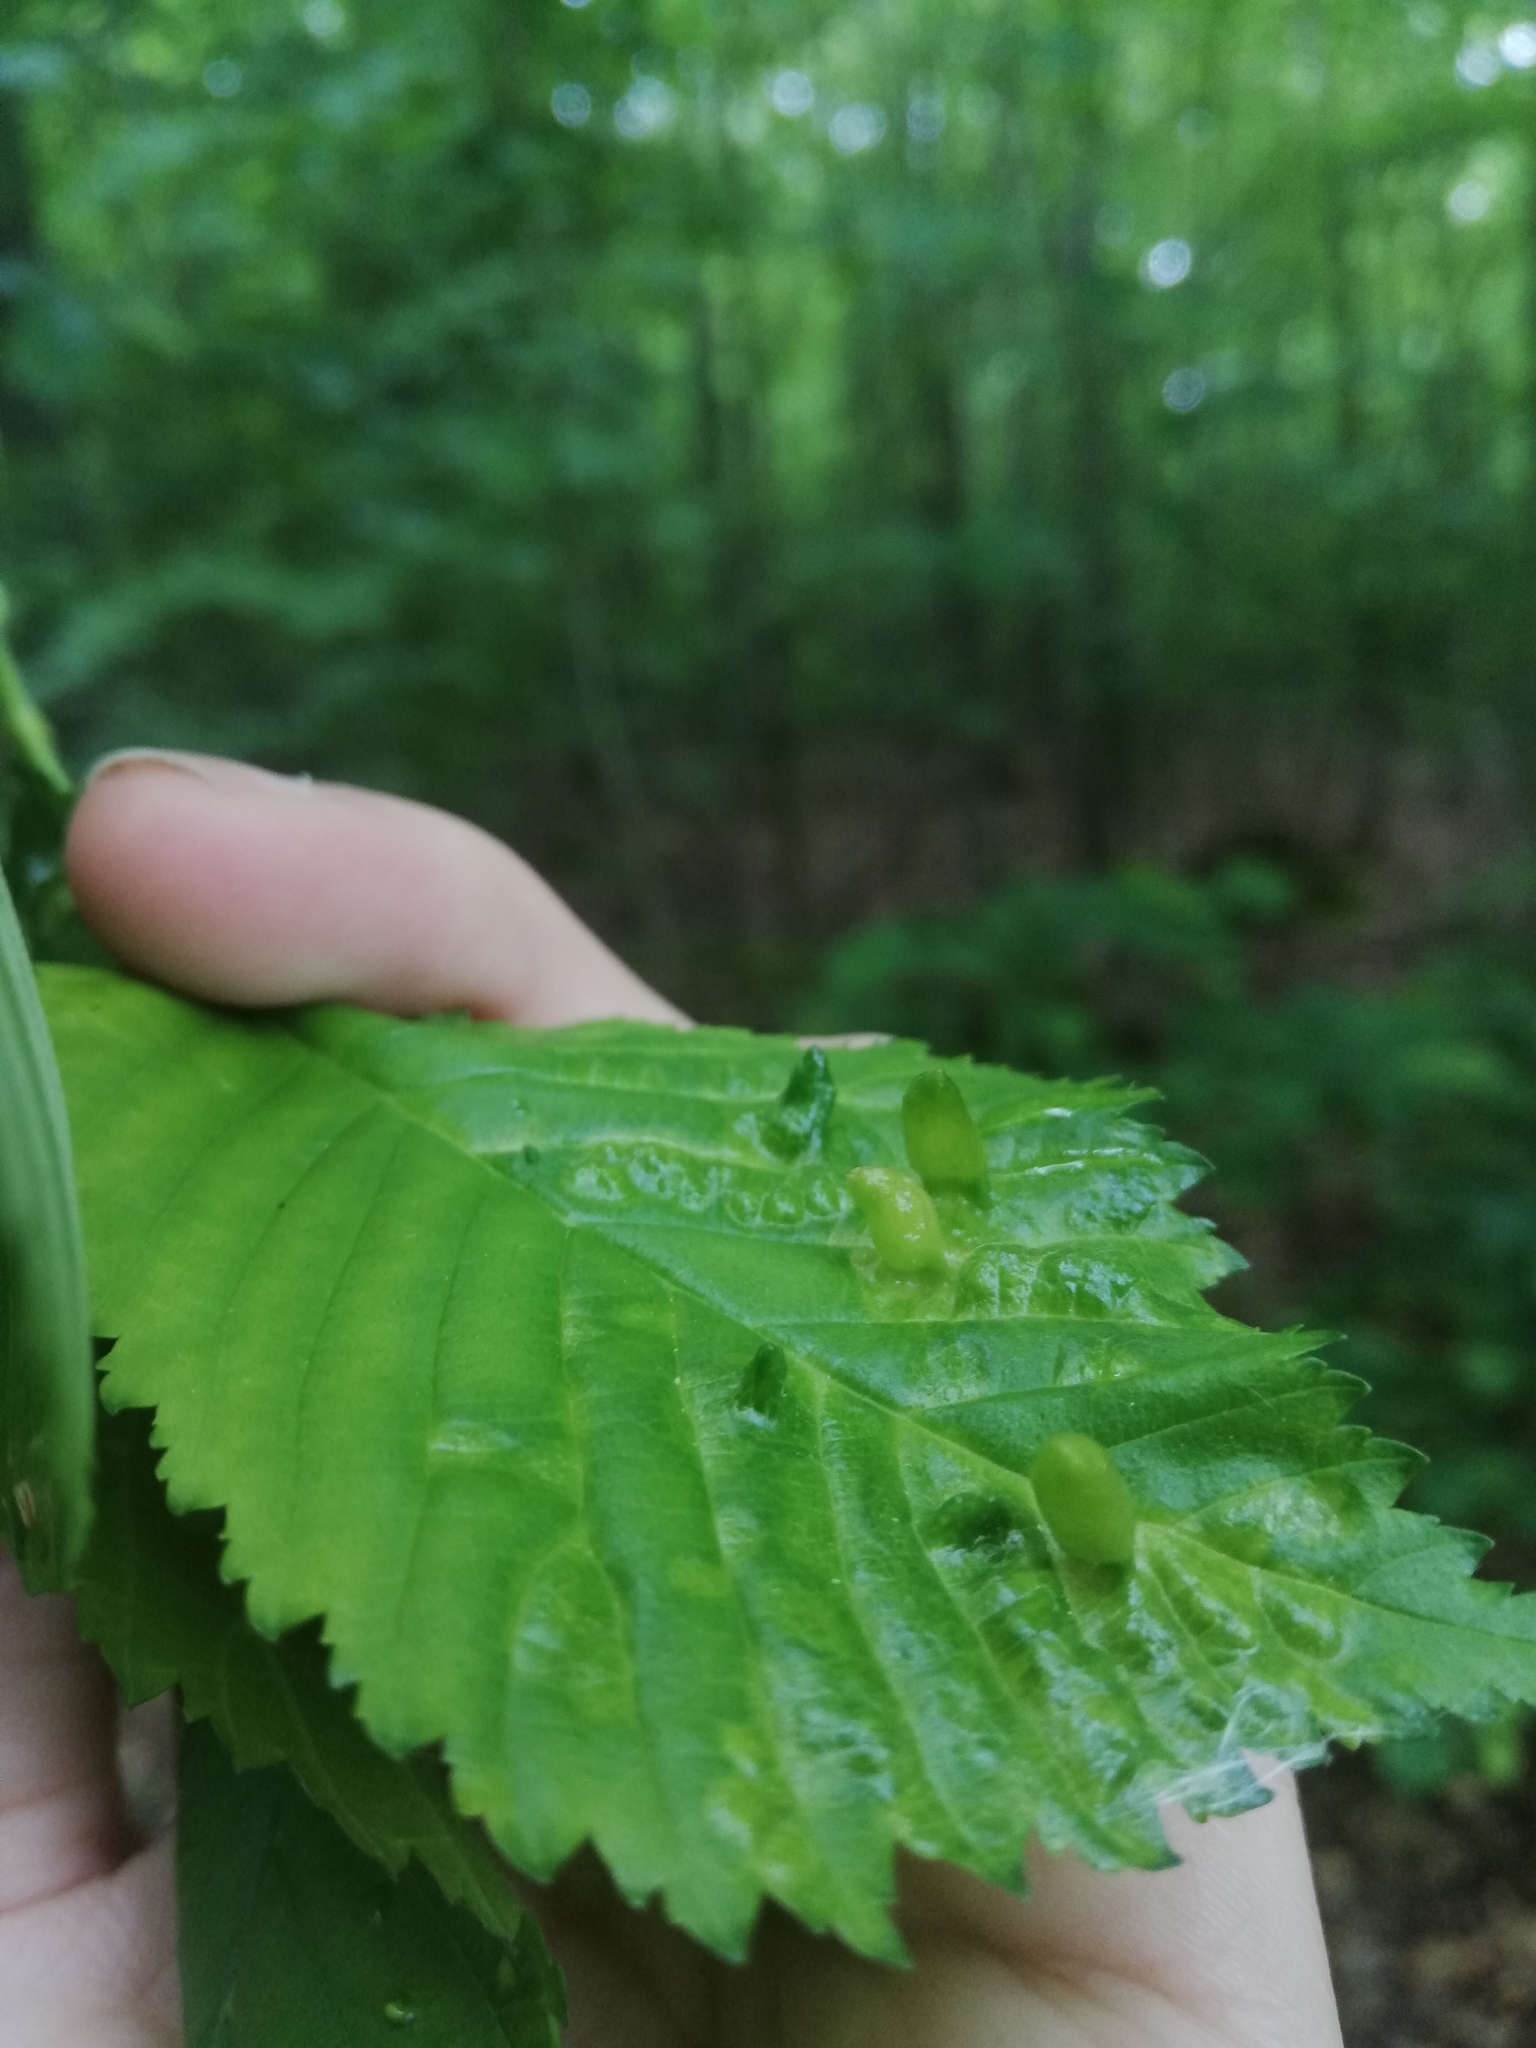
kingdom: Animalia
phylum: Arthropoda
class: Insecta
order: Hemiptera
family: Aphididae
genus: Tetraneura
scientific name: Tetraneura ulmi
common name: Aphid
